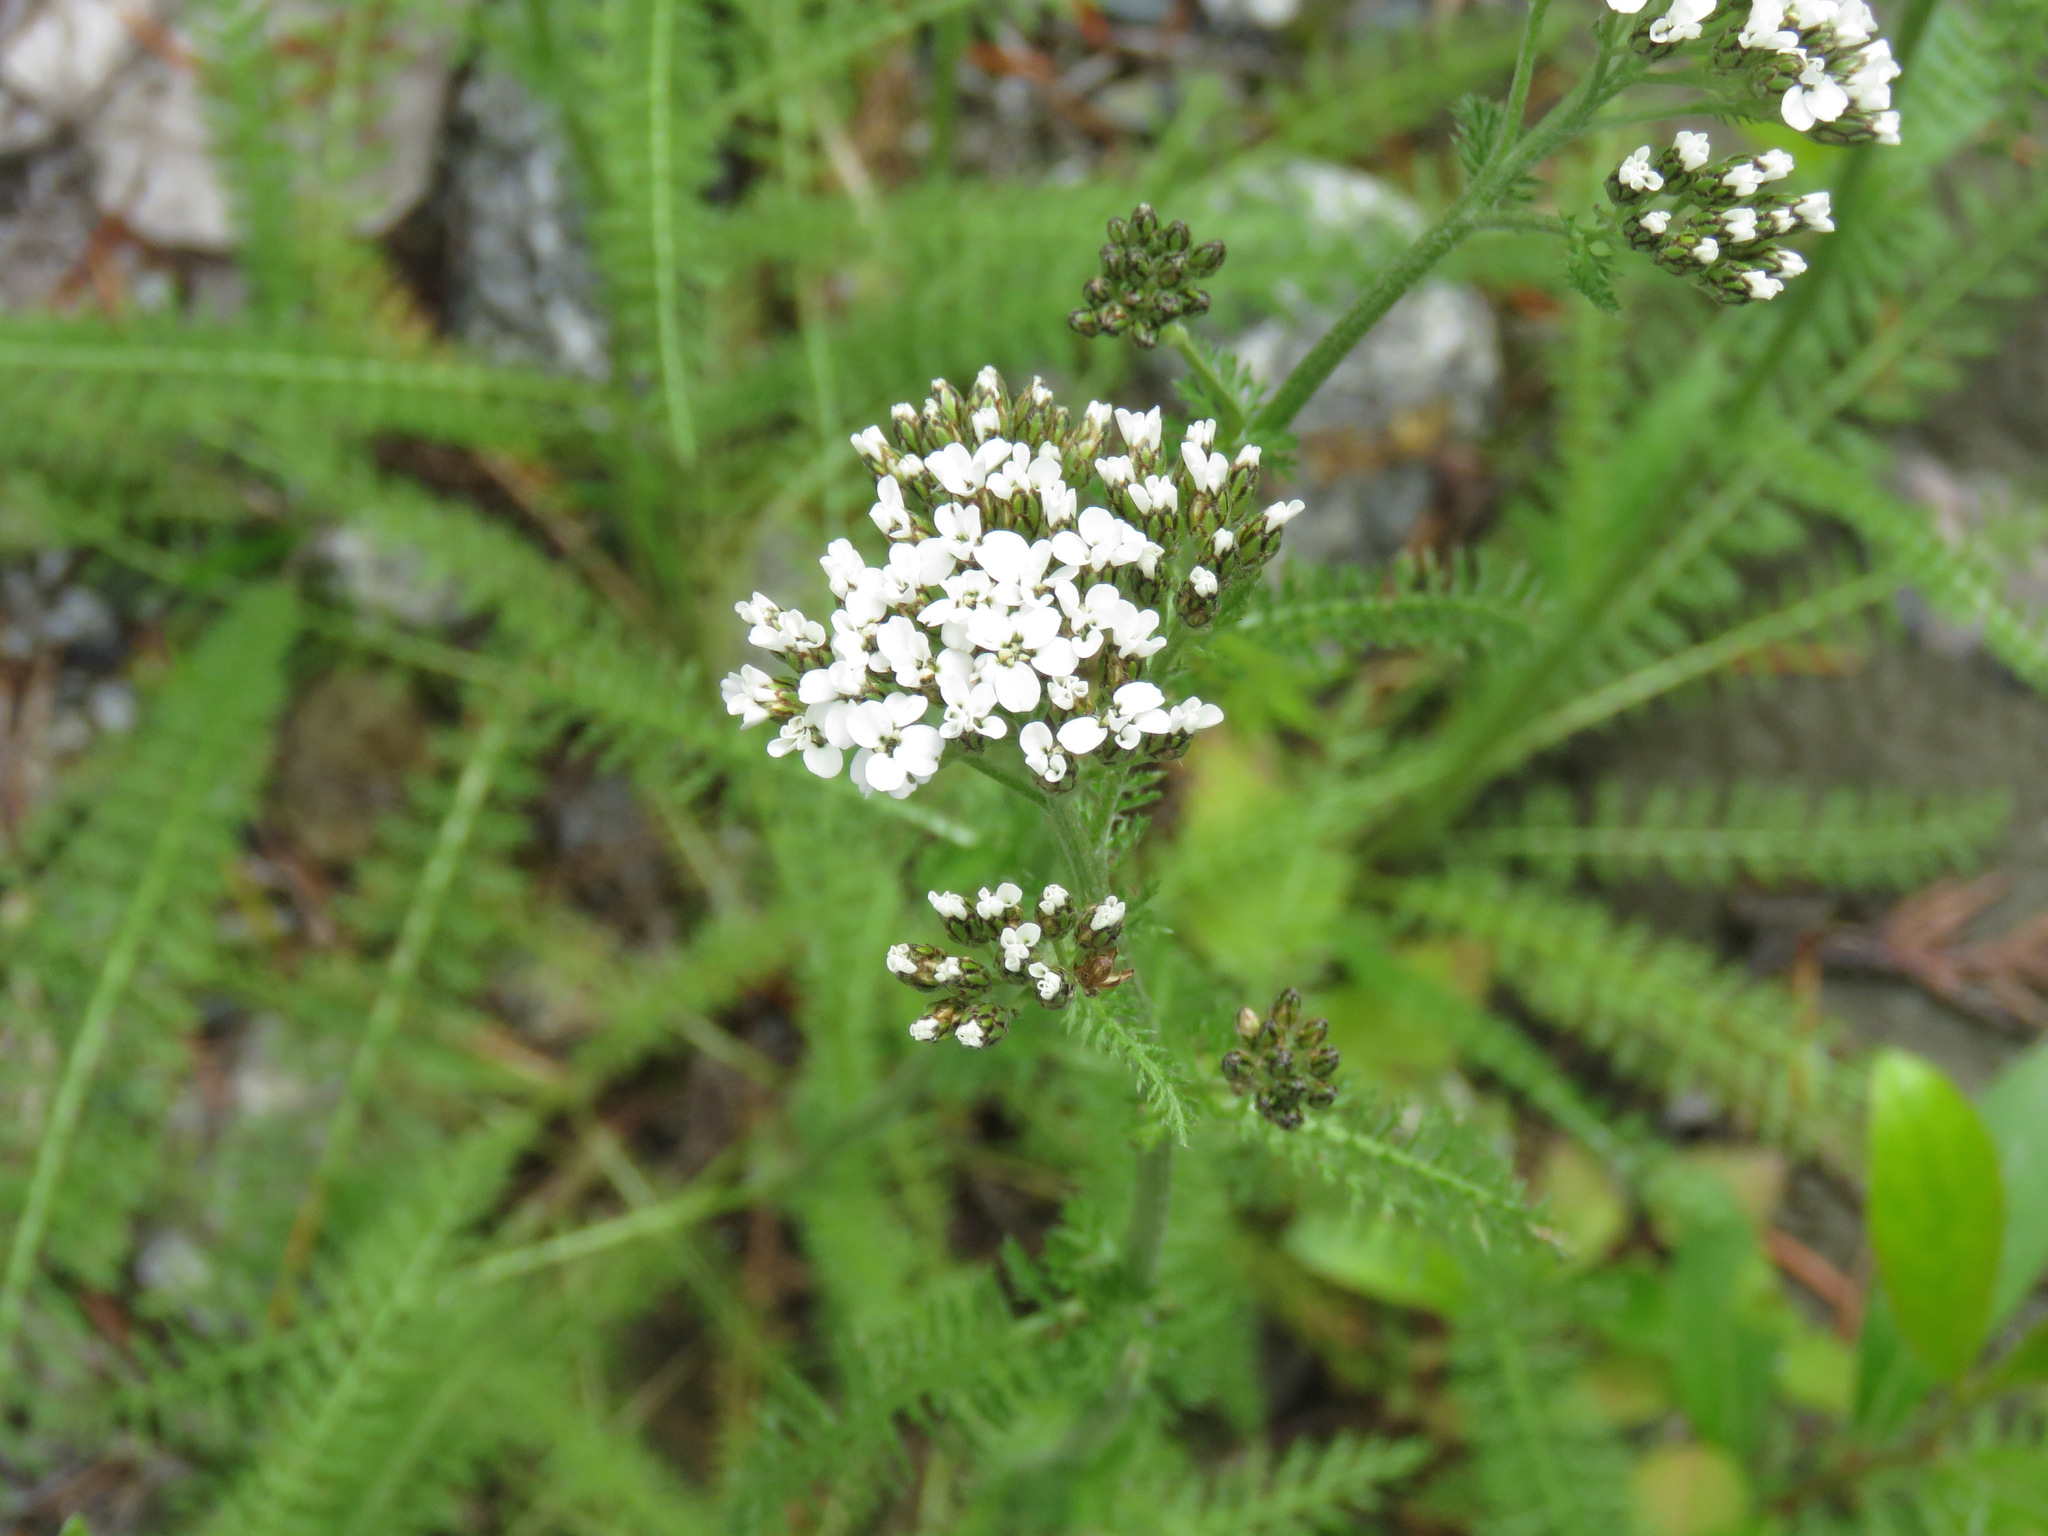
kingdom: Plantae
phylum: Tracheophyta
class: Magnoliopsida
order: Asterales
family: Asteraceae
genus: Achillea
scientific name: Achillea millefolium
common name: Yarrow
